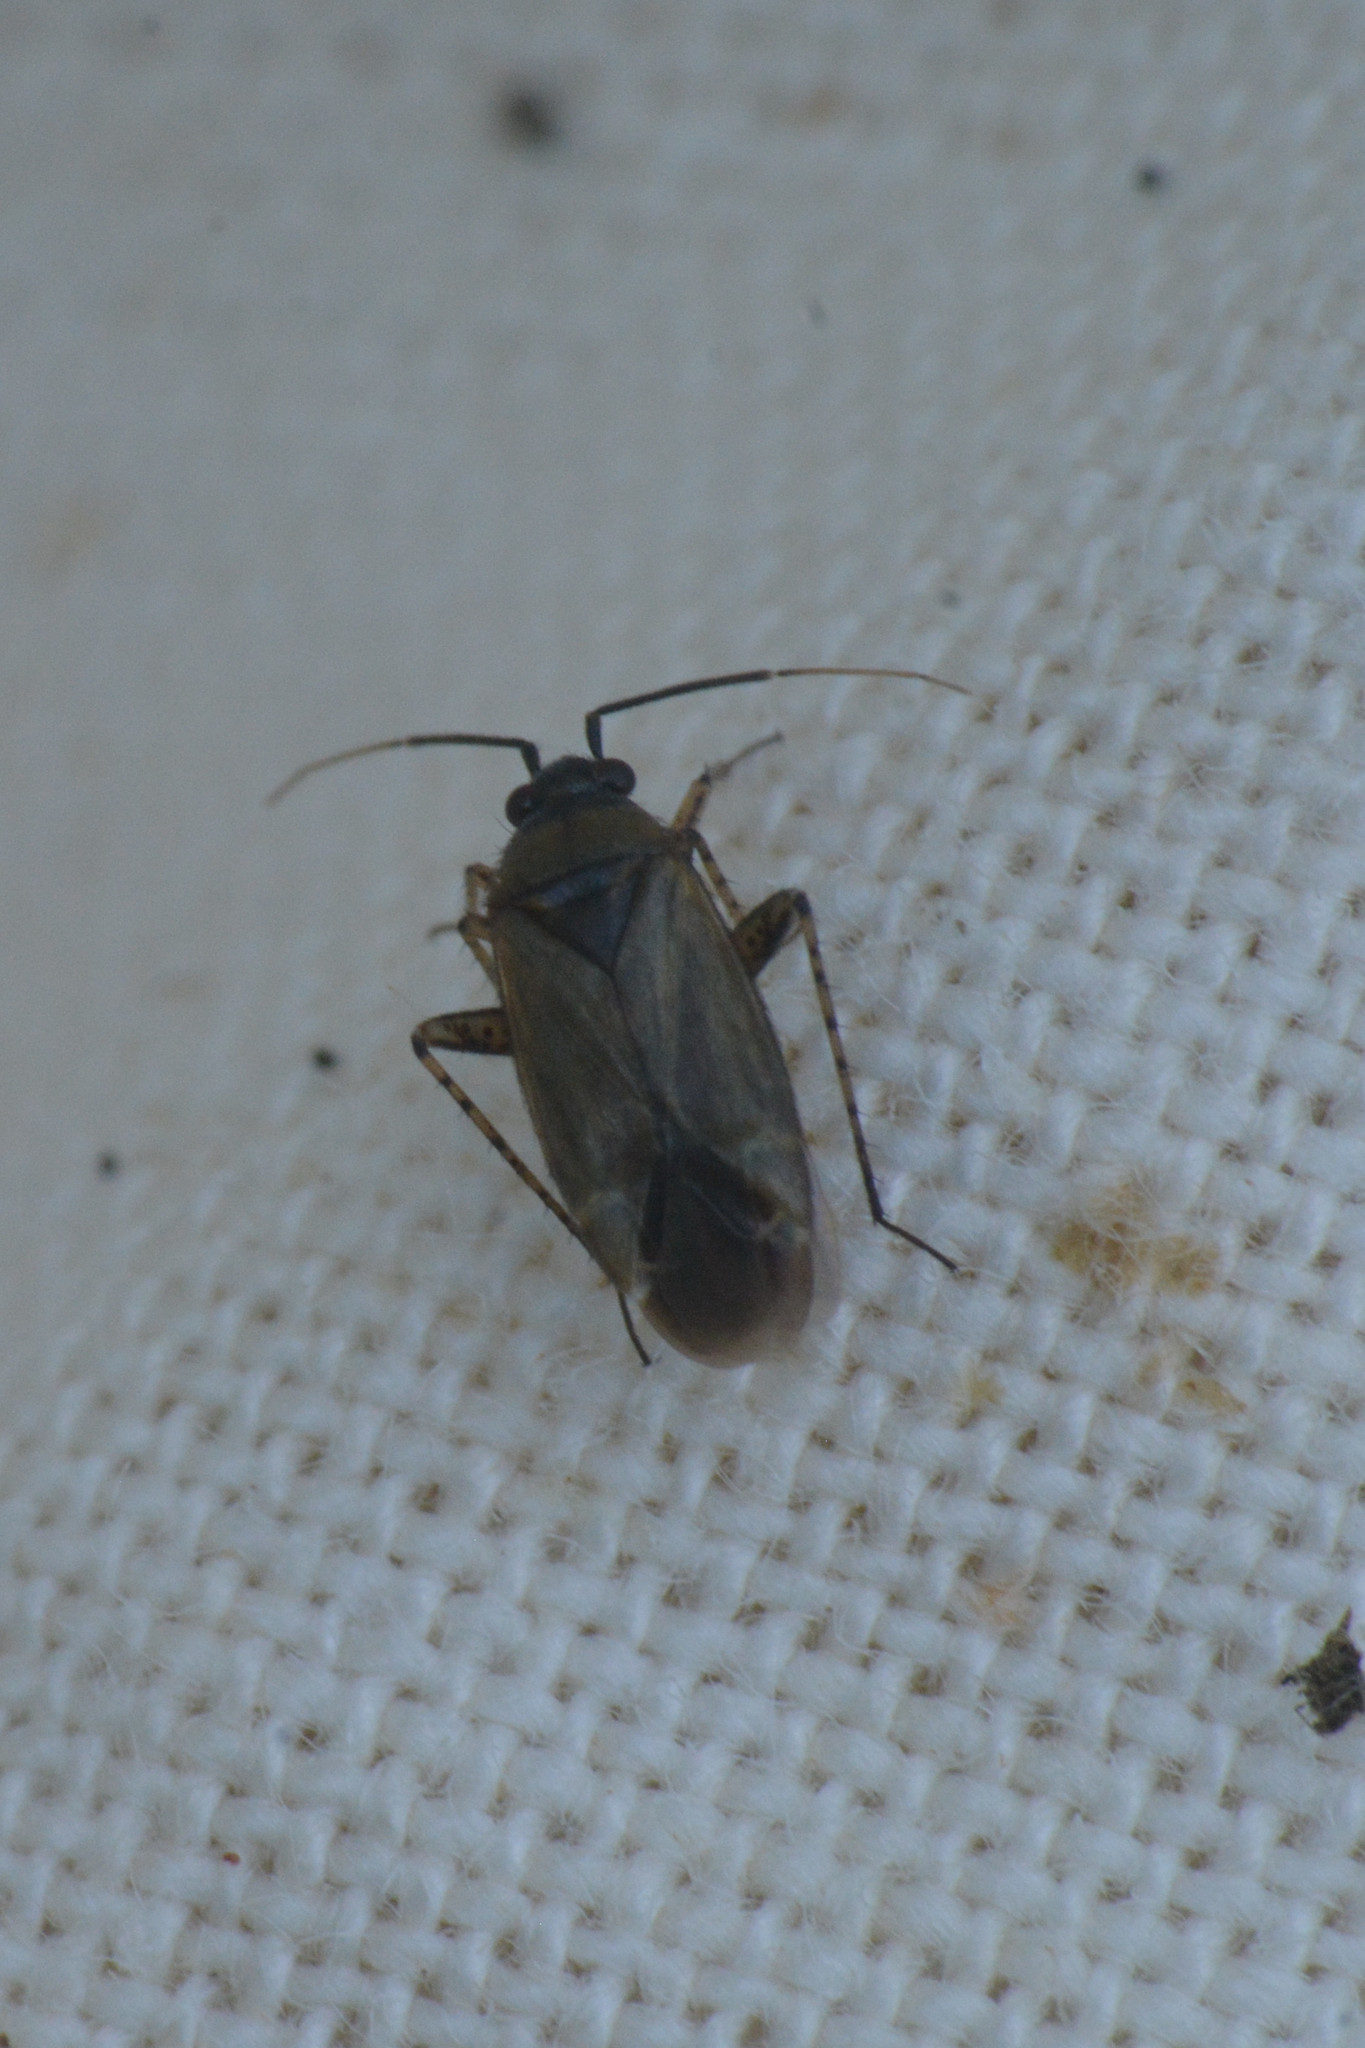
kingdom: Animalia
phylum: Arthropoda
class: Insecta
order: Hemiptera
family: Miridae
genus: Plagiognathus
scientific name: Plagiognathus arbustorum
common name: Plant bug
